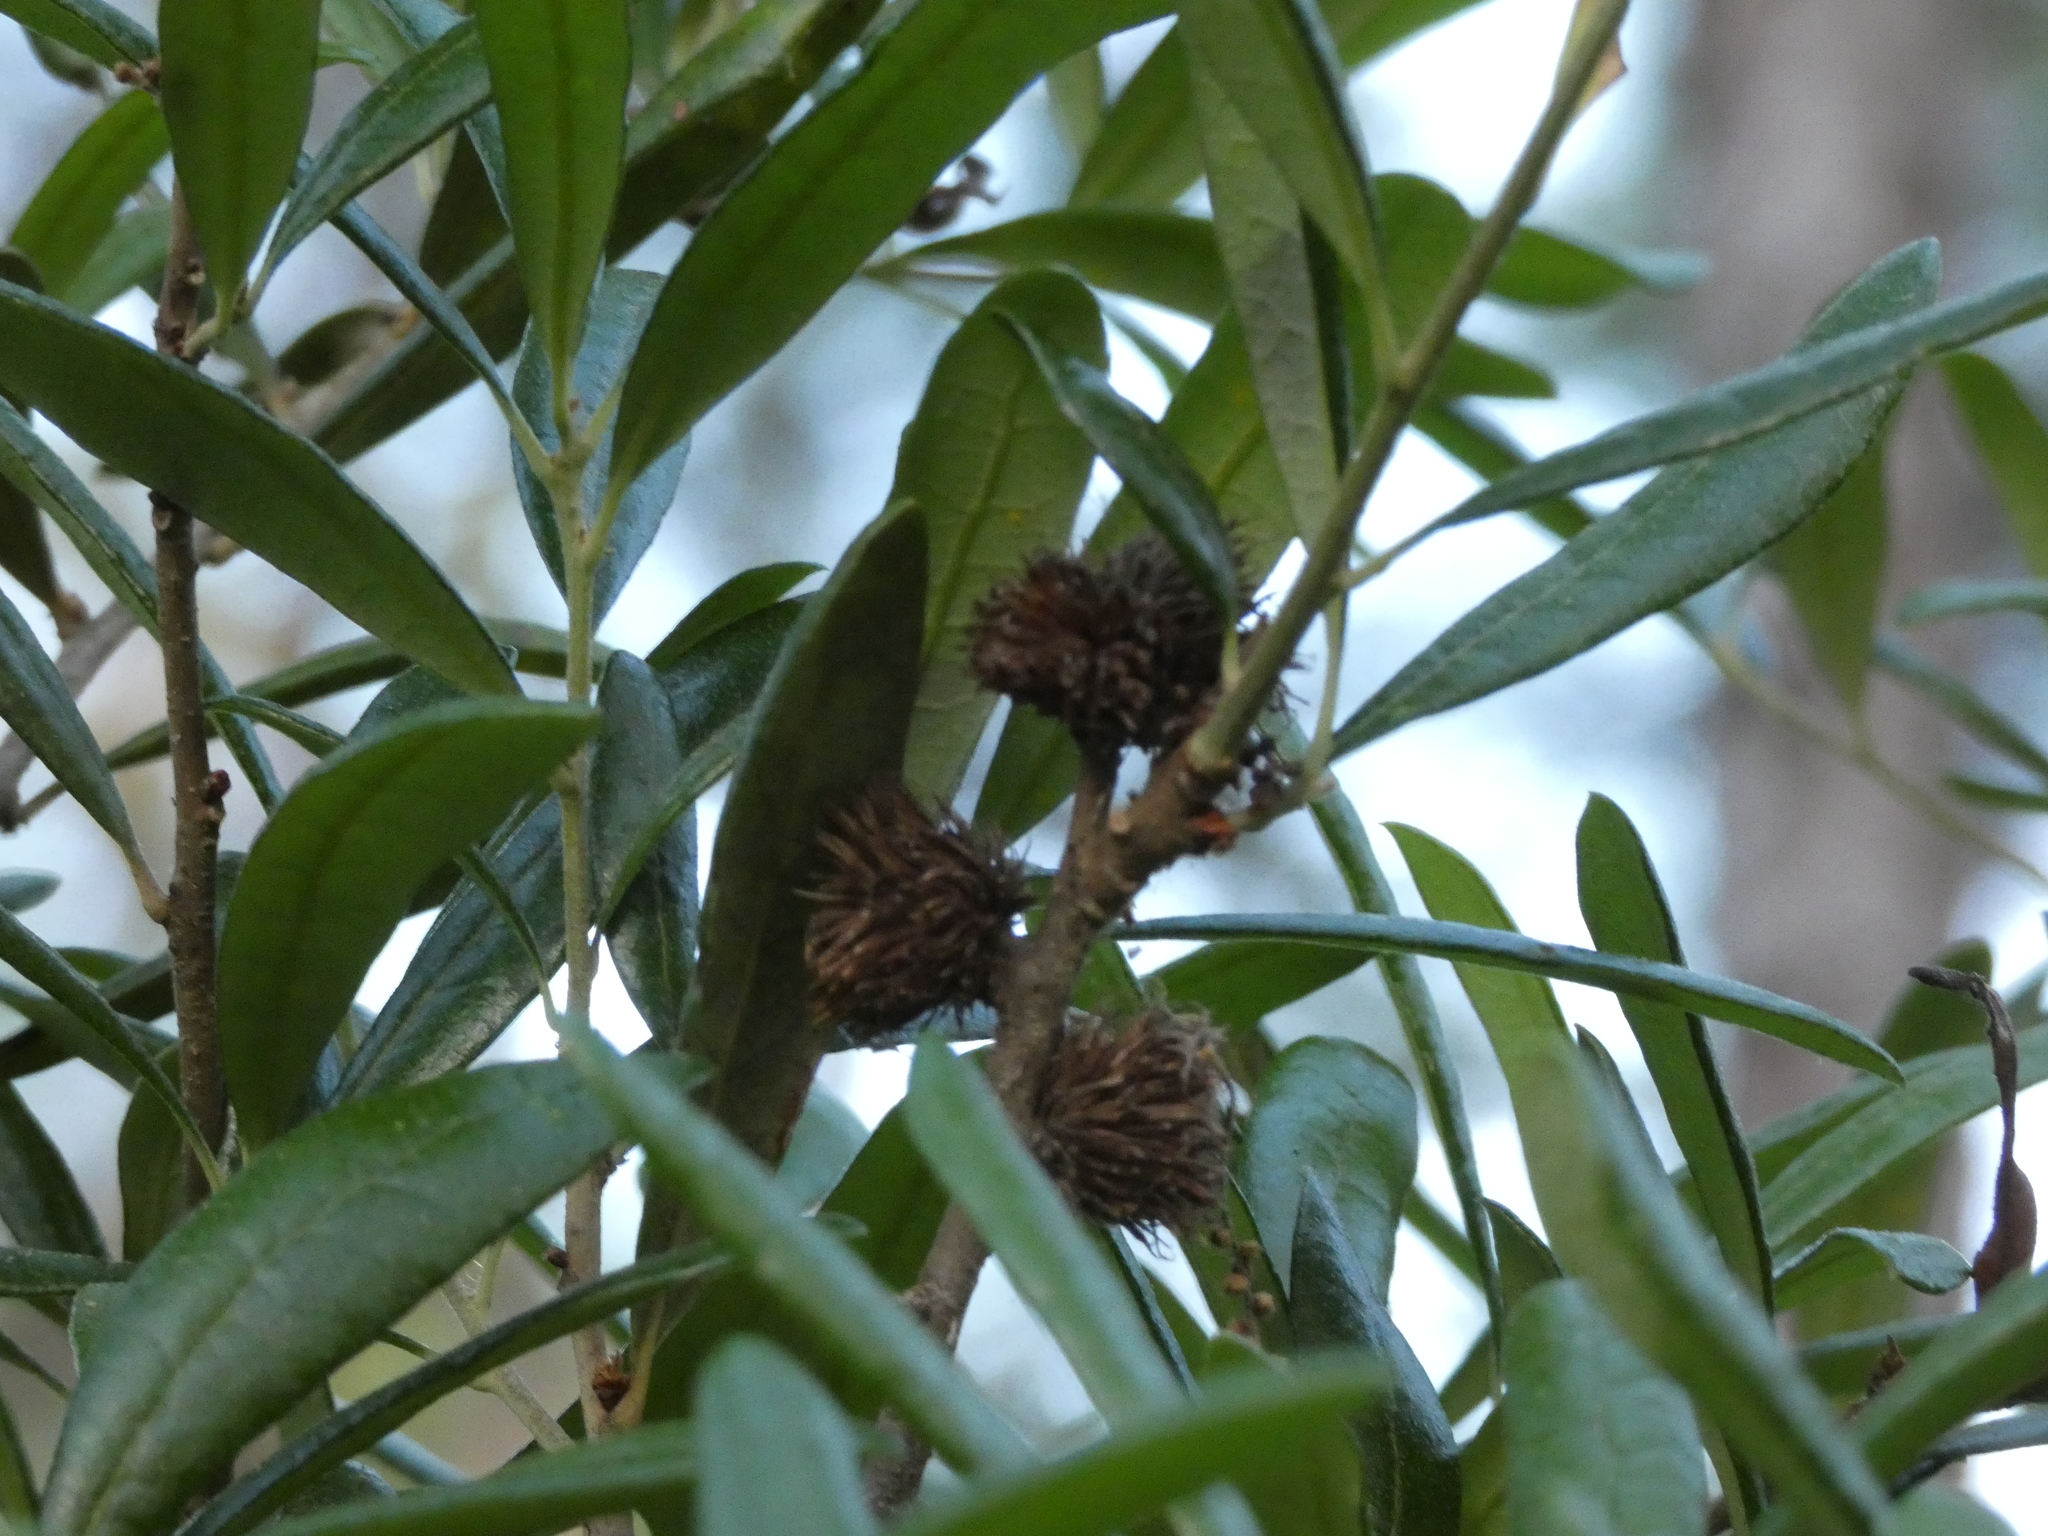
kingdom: Animalia
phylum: Arthropoda
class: Insecta
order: Hymenoptera
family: Cynipidae
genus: Andricus
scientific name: Andricus quercusfoliatus
